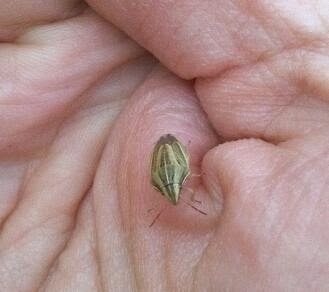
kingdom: Animalia
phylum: Arthropoda
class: Insecta
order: Hemiptera
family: Pentatomidae
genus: Aelia
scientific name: Aelia acuminata
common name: Bishop's mitre
